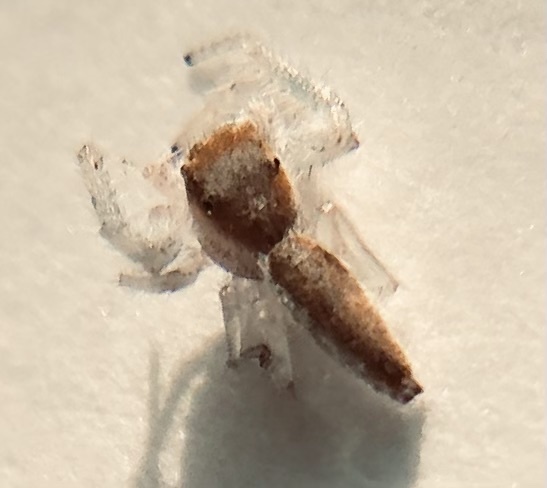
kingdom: Animalia
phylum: Arthropoda
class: Arachnida
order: Araneae
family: Salticidae
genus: Hentzia
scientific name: Hentzia mitrata
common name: White-jawed jumping spider
